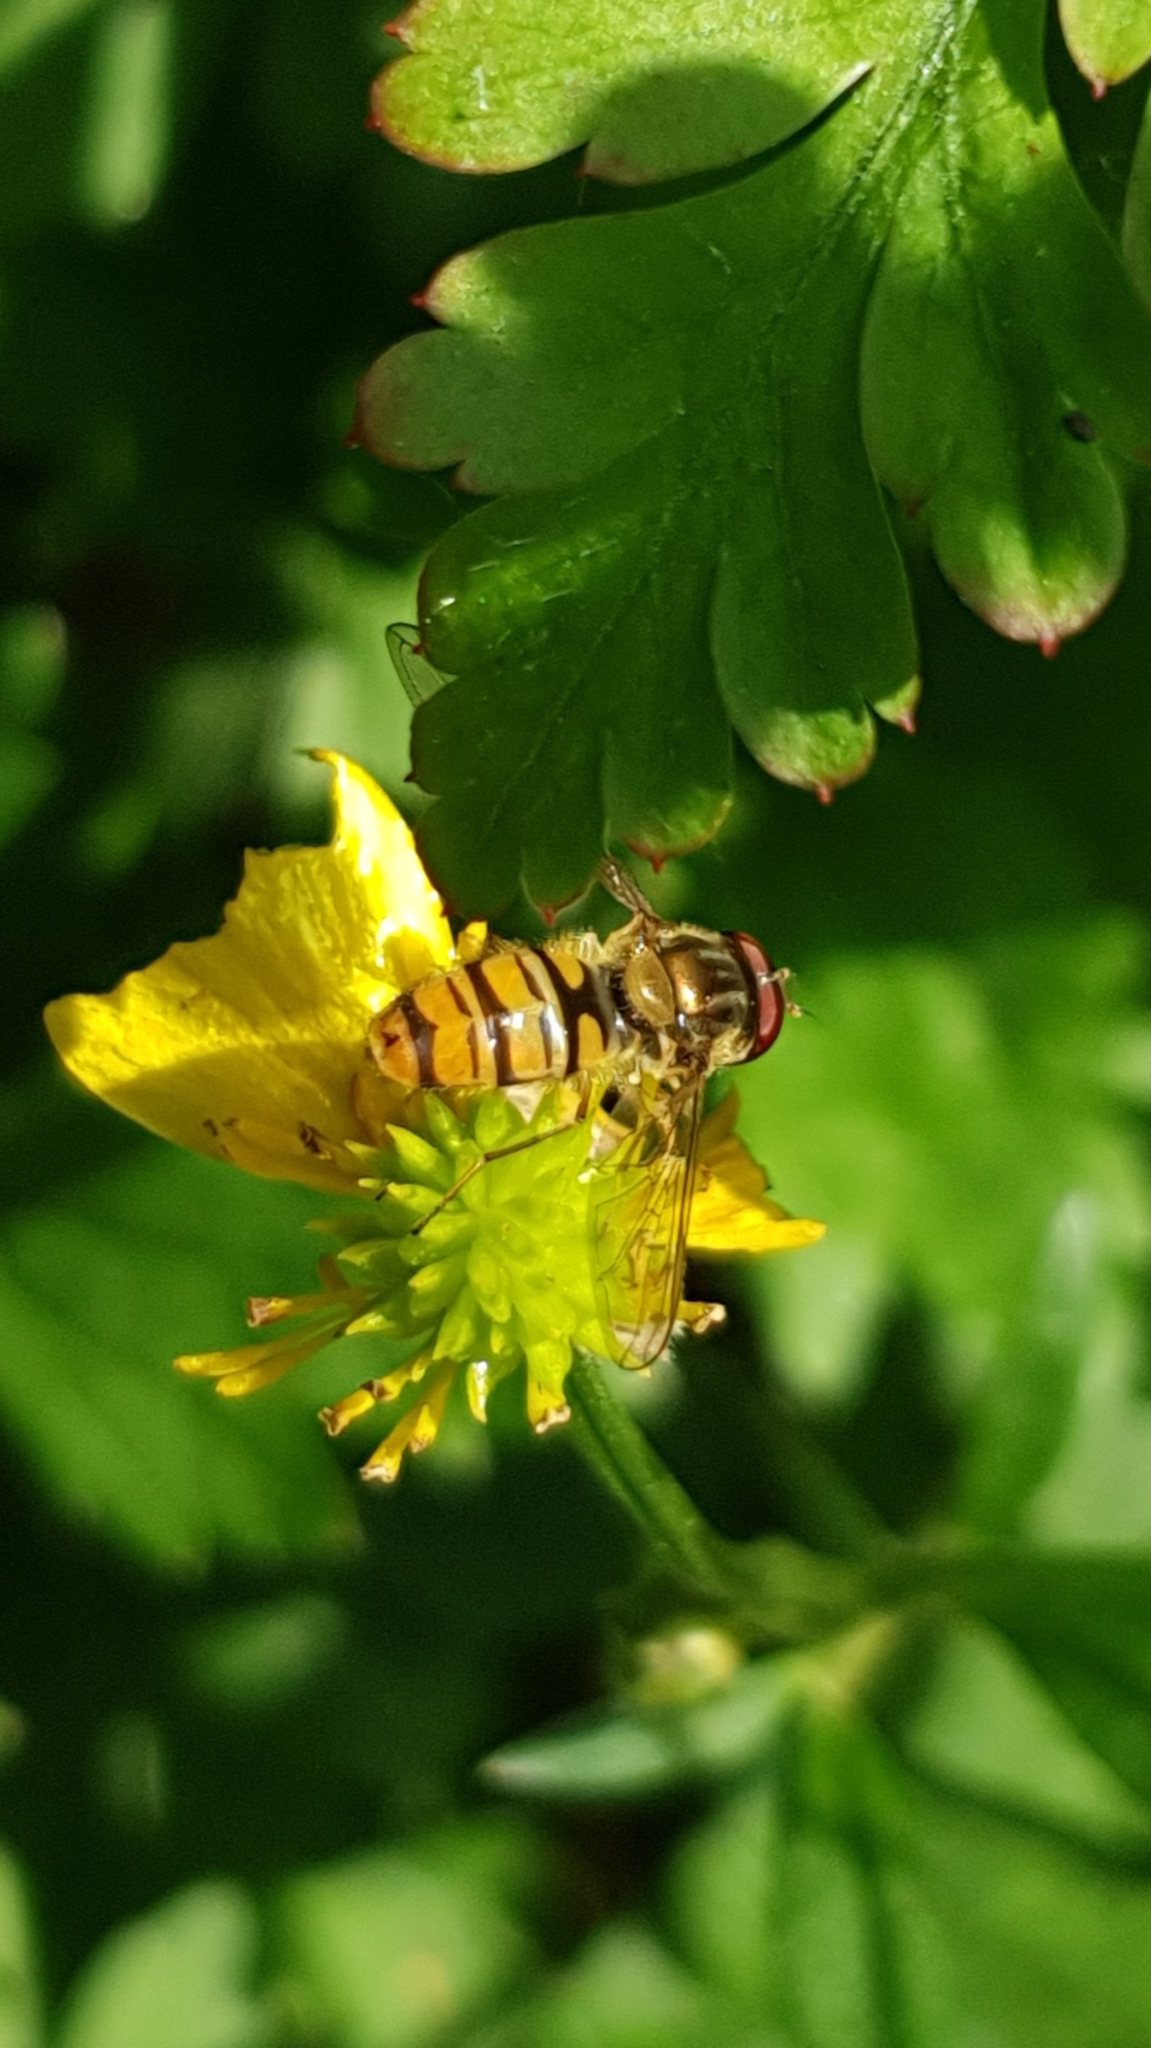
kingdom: Animalia
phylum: Arthropoda
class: Insecta
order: Diptera
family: Syrphidae
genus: Episyrphus
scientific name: Episyrphus balteatus
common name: Marmalade hoverfly
